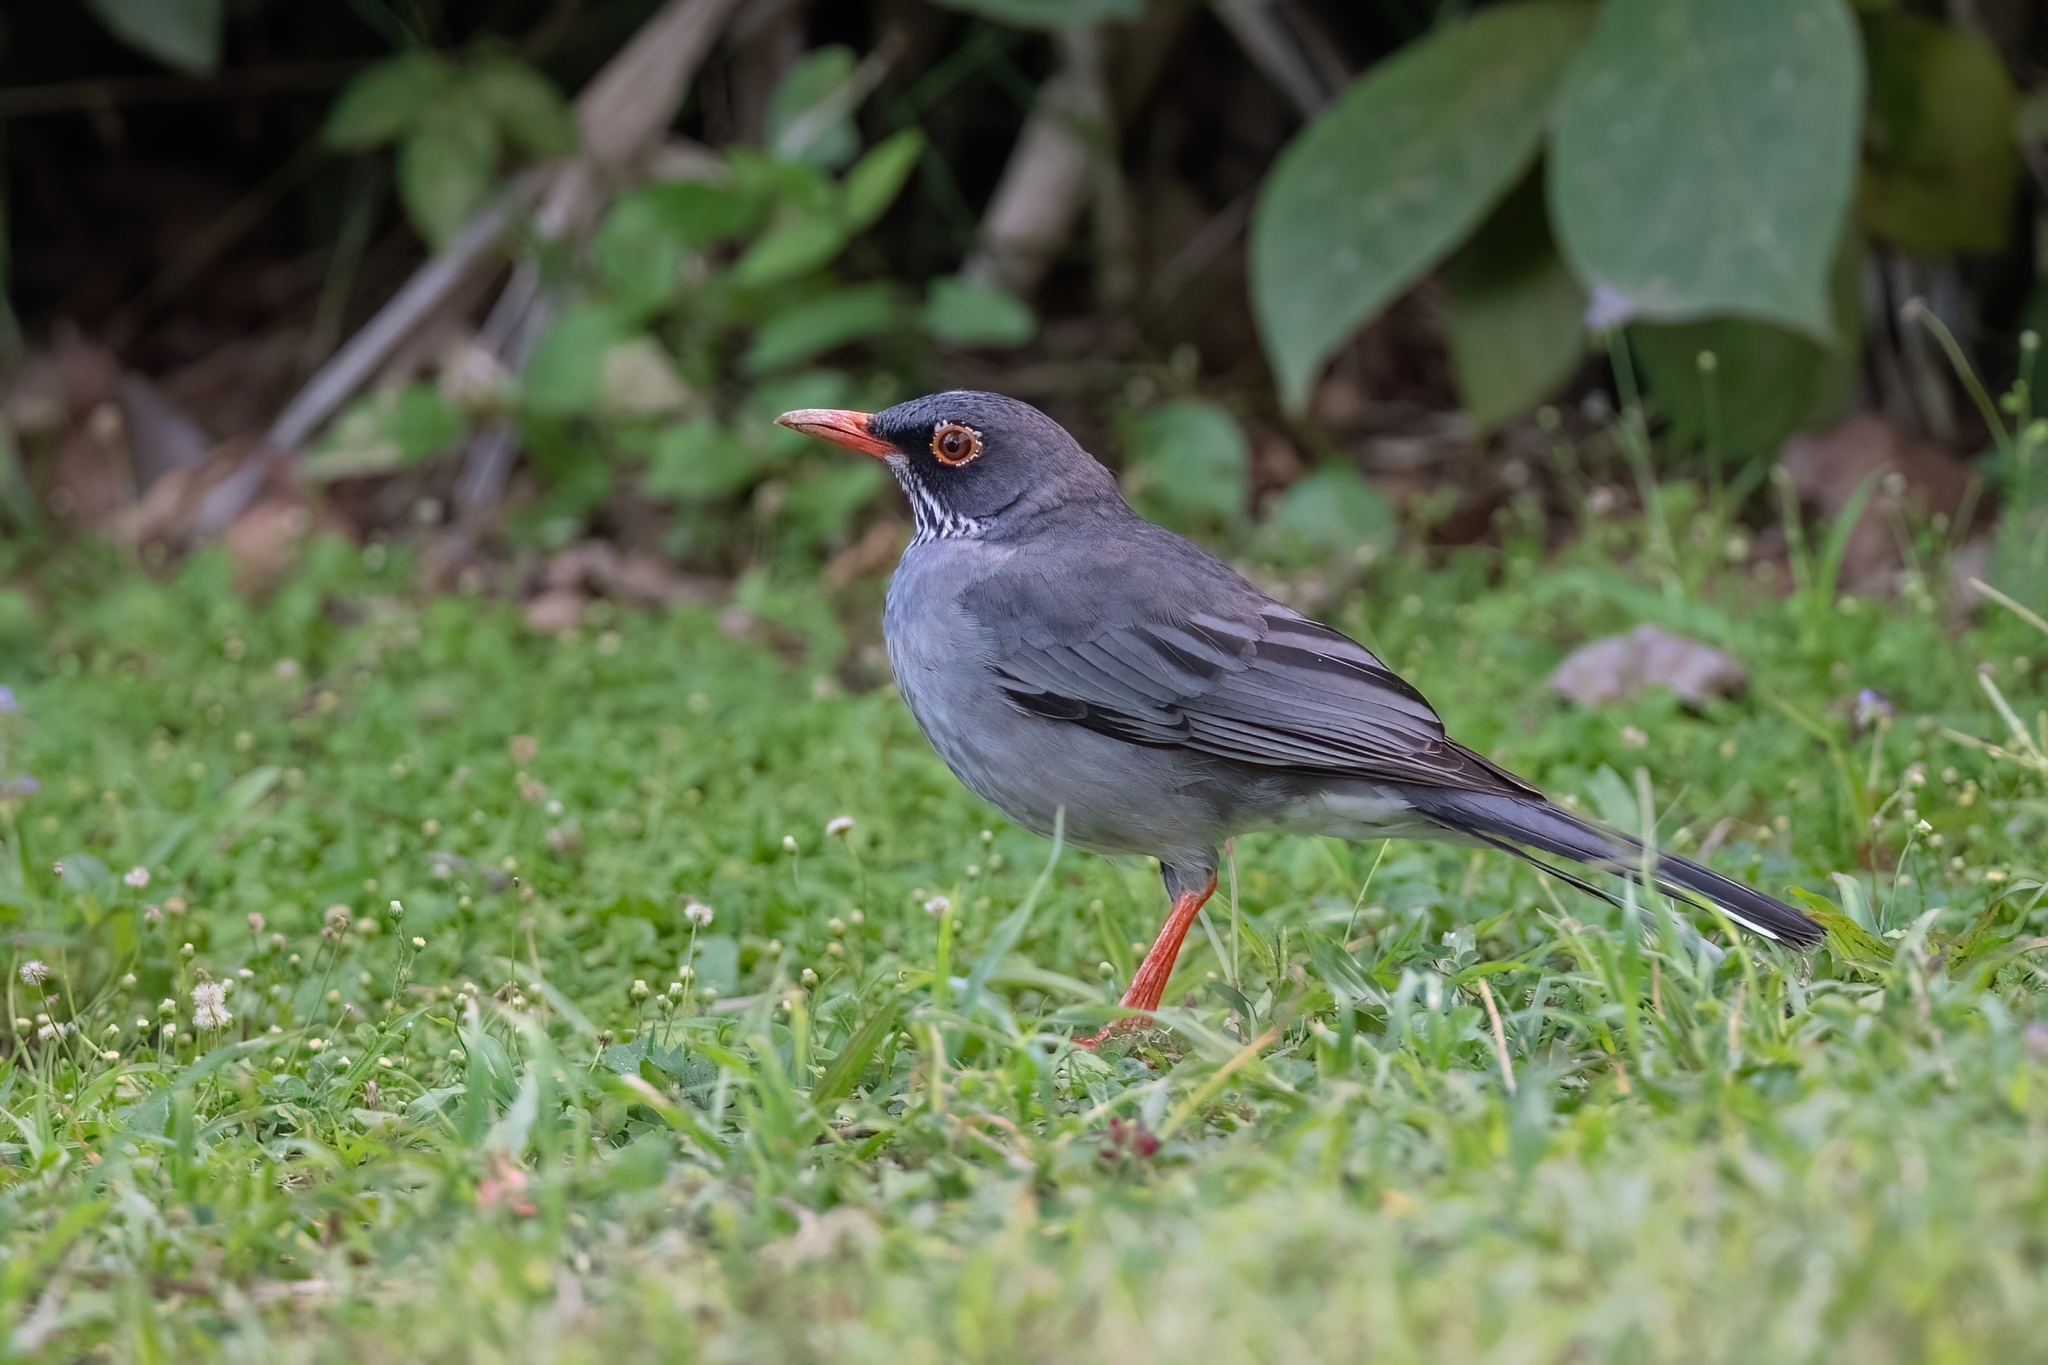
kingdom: Animalia
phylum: Chordata
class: Aves
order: Passeriformes
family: Turdidae
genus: Turdus
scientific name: Turdus plumbeus
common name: Red-legged thrush
